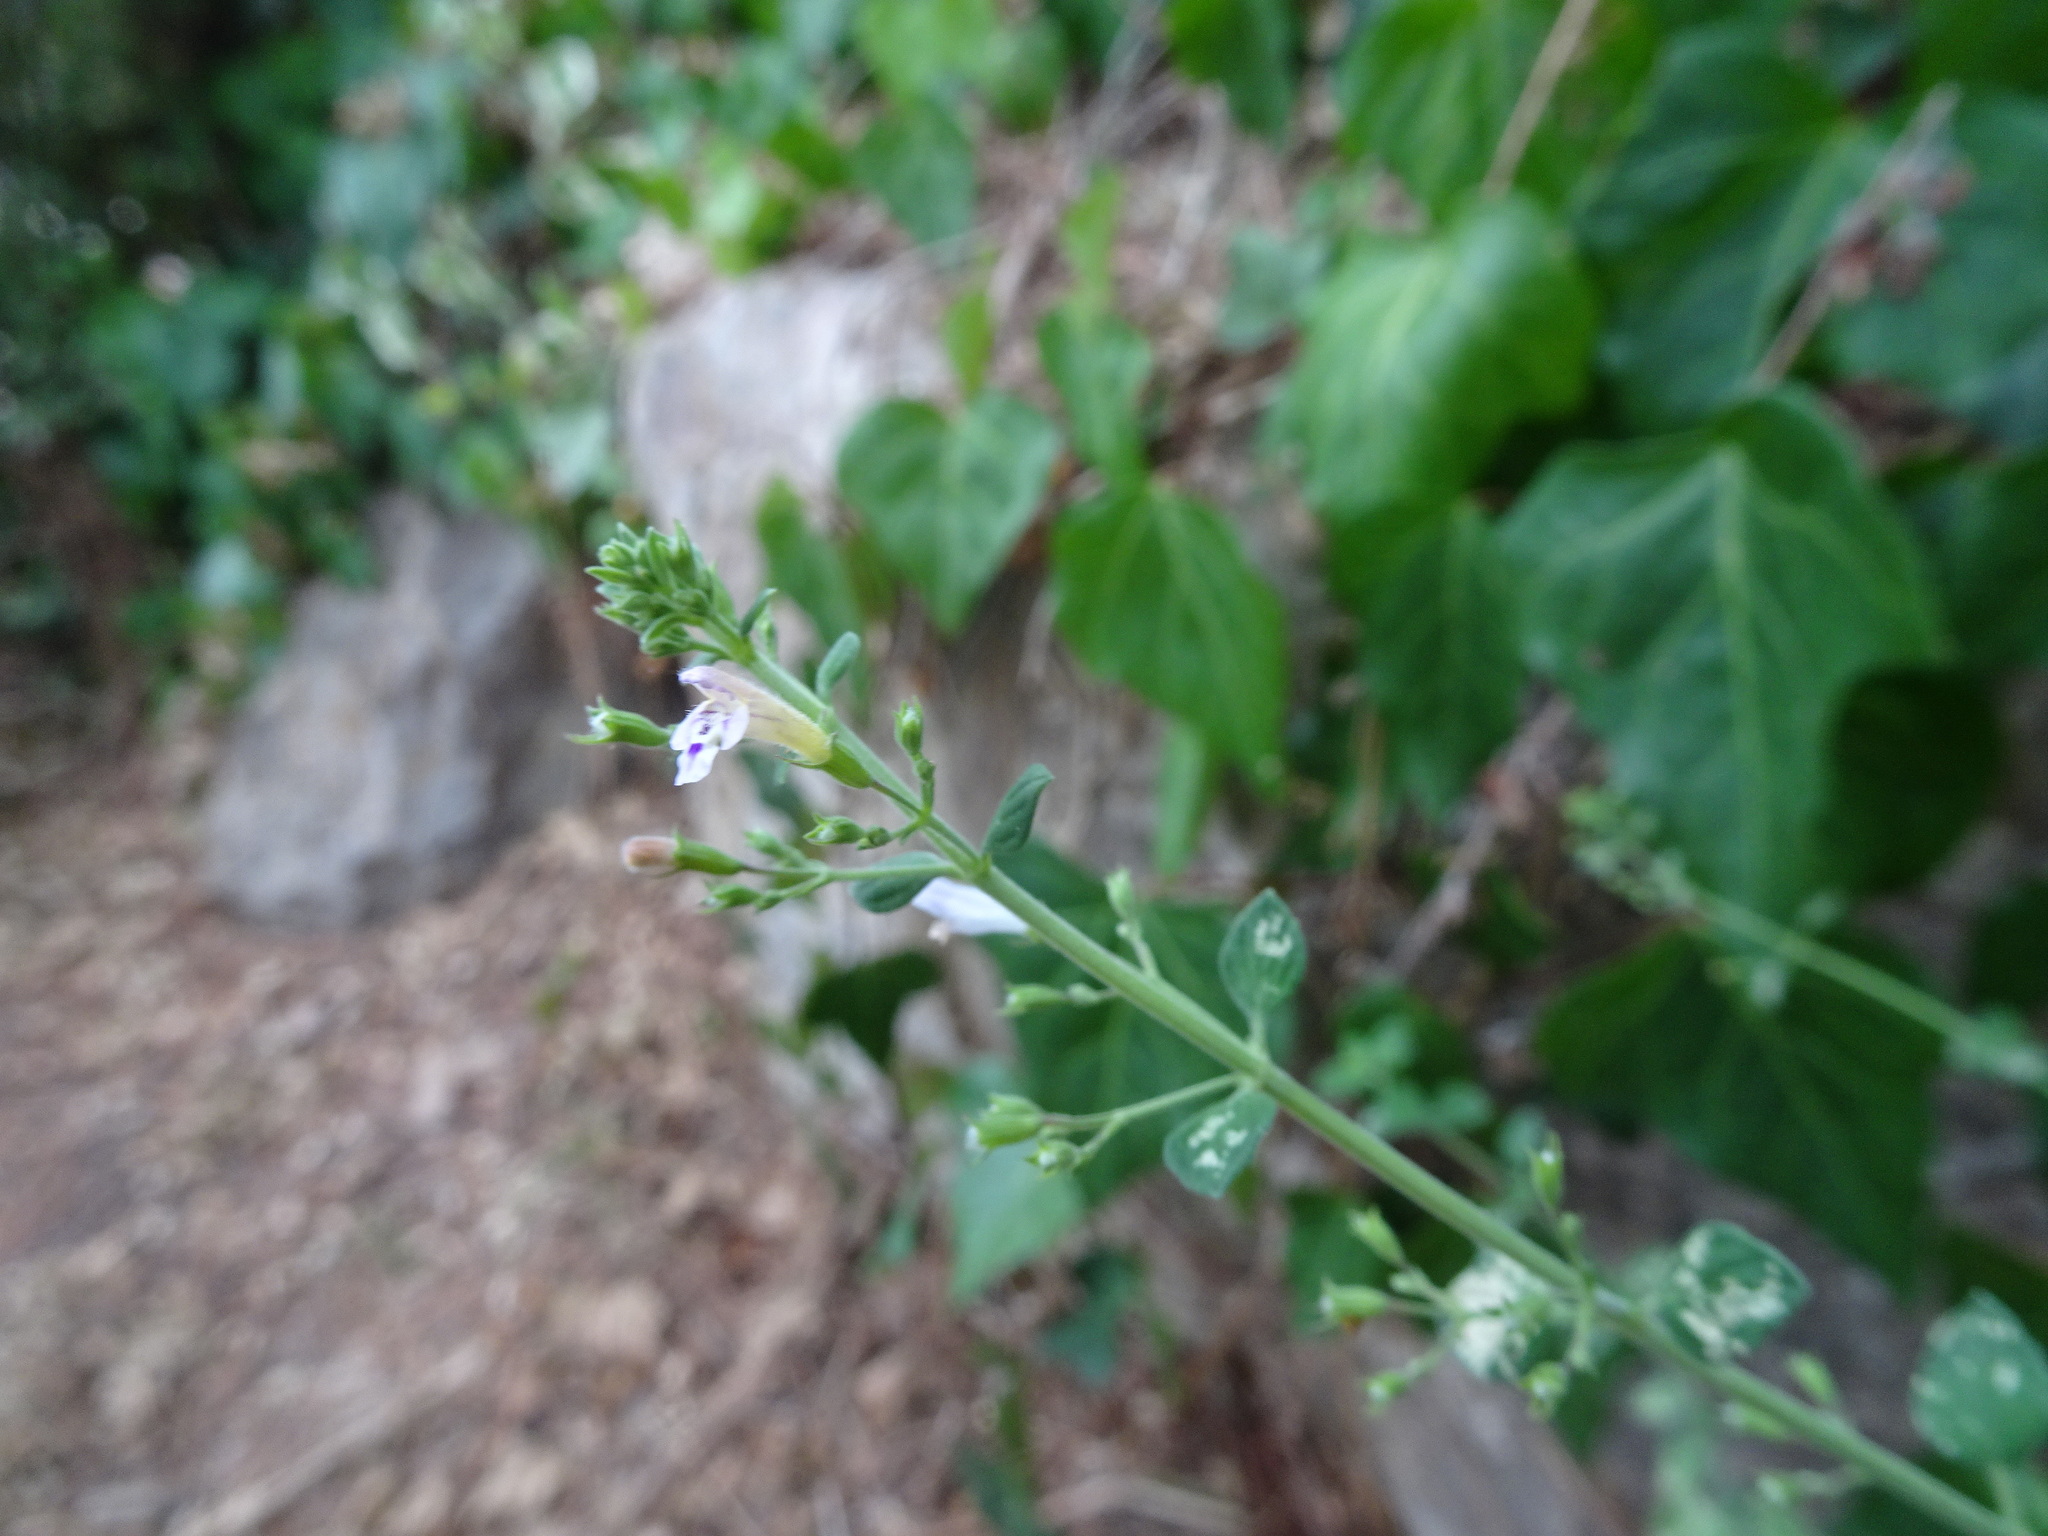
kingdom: Plantae
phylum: Tracheophyta
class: Magnoliopsida
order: Lamiales
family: Lamiaceae
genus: Clinopodium
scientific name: Clinopodium nepeta
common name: Lesser calamint
